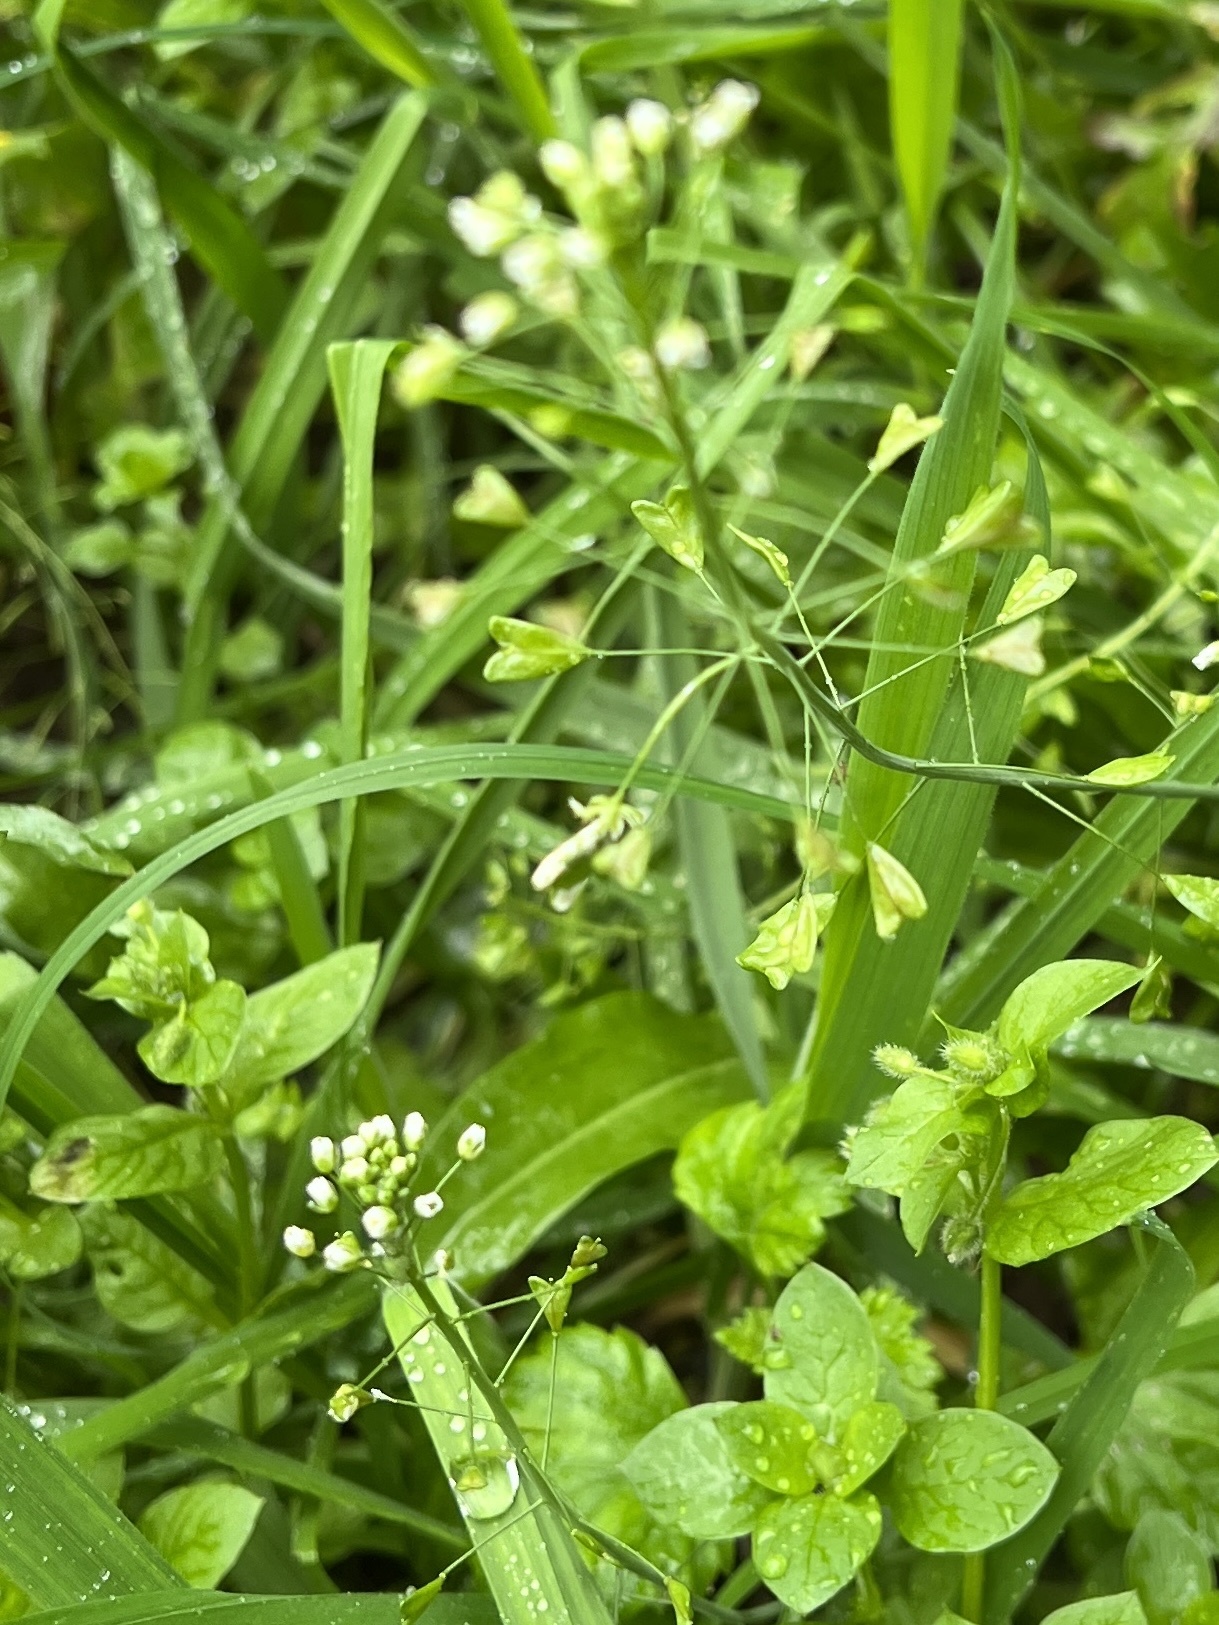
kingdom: Plantae
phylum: Tracheophyta
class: Magnoliopsida
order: Brassicales
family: Brassicaceae
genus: Capsella
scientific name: Capsella bursa-pastoris
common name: Shepherd's purse
